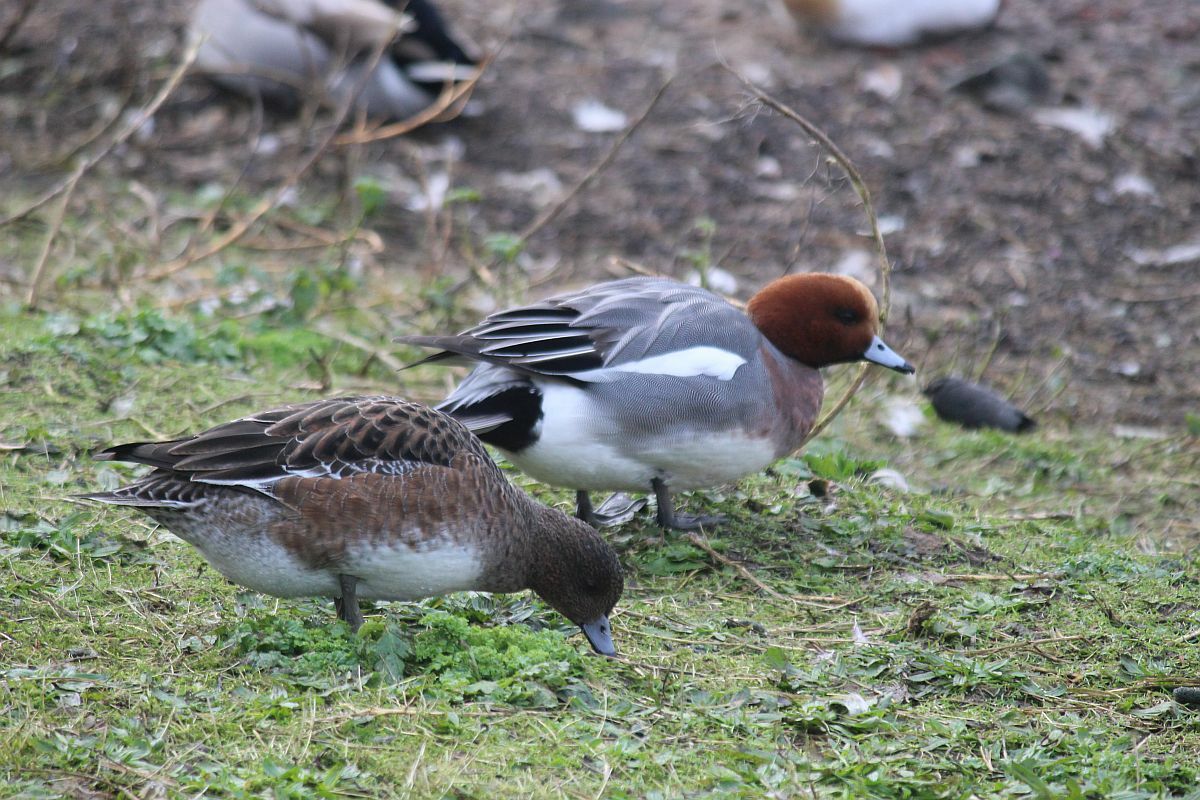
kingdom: Animalia
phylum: Chordata
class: Aves
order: Anseriformes
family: Anatidae
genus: Mareca
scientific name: Mareca penelope
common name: Eurasian wigeon
